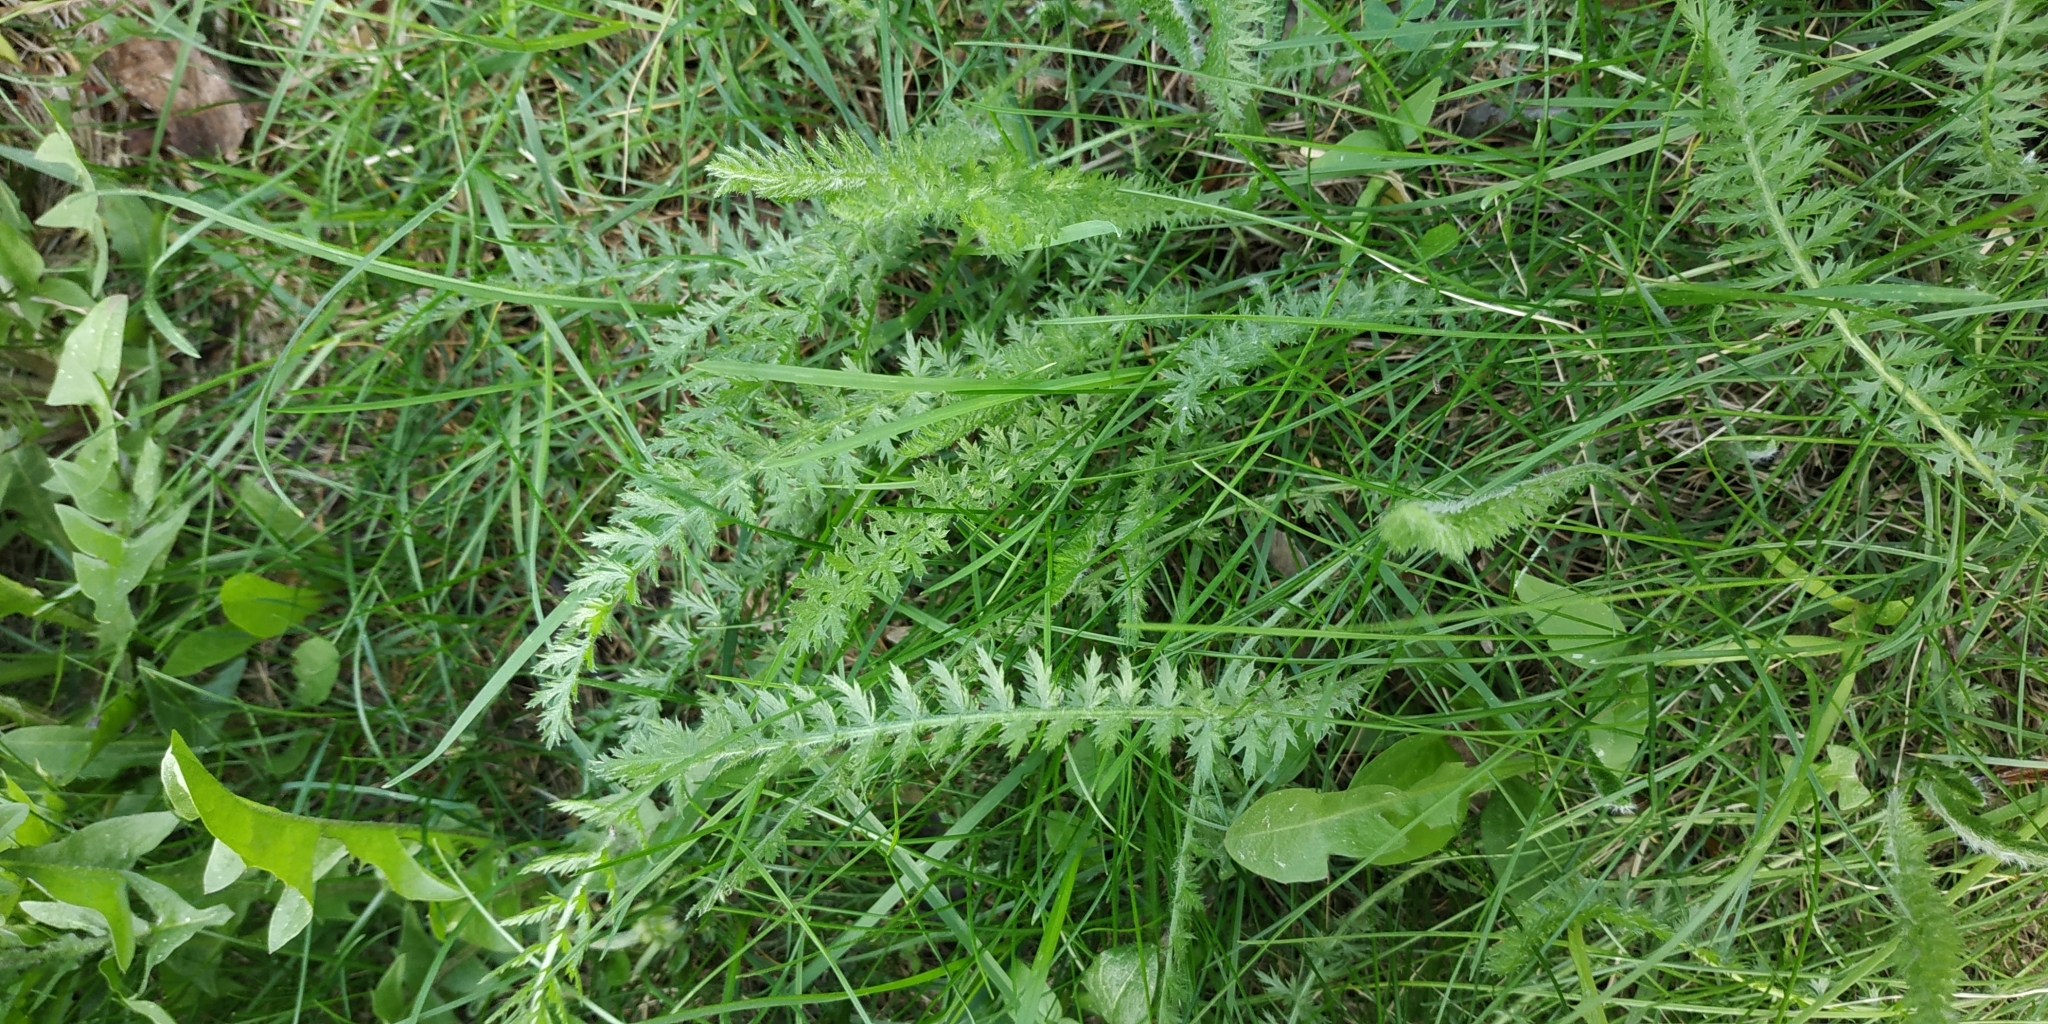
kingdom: Plantae
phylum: Tracheophyta
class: Magnoliopsida
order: Asterales
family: Asteraceae
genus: Achillea
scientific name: Achillea millefolium
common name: Yarrow
